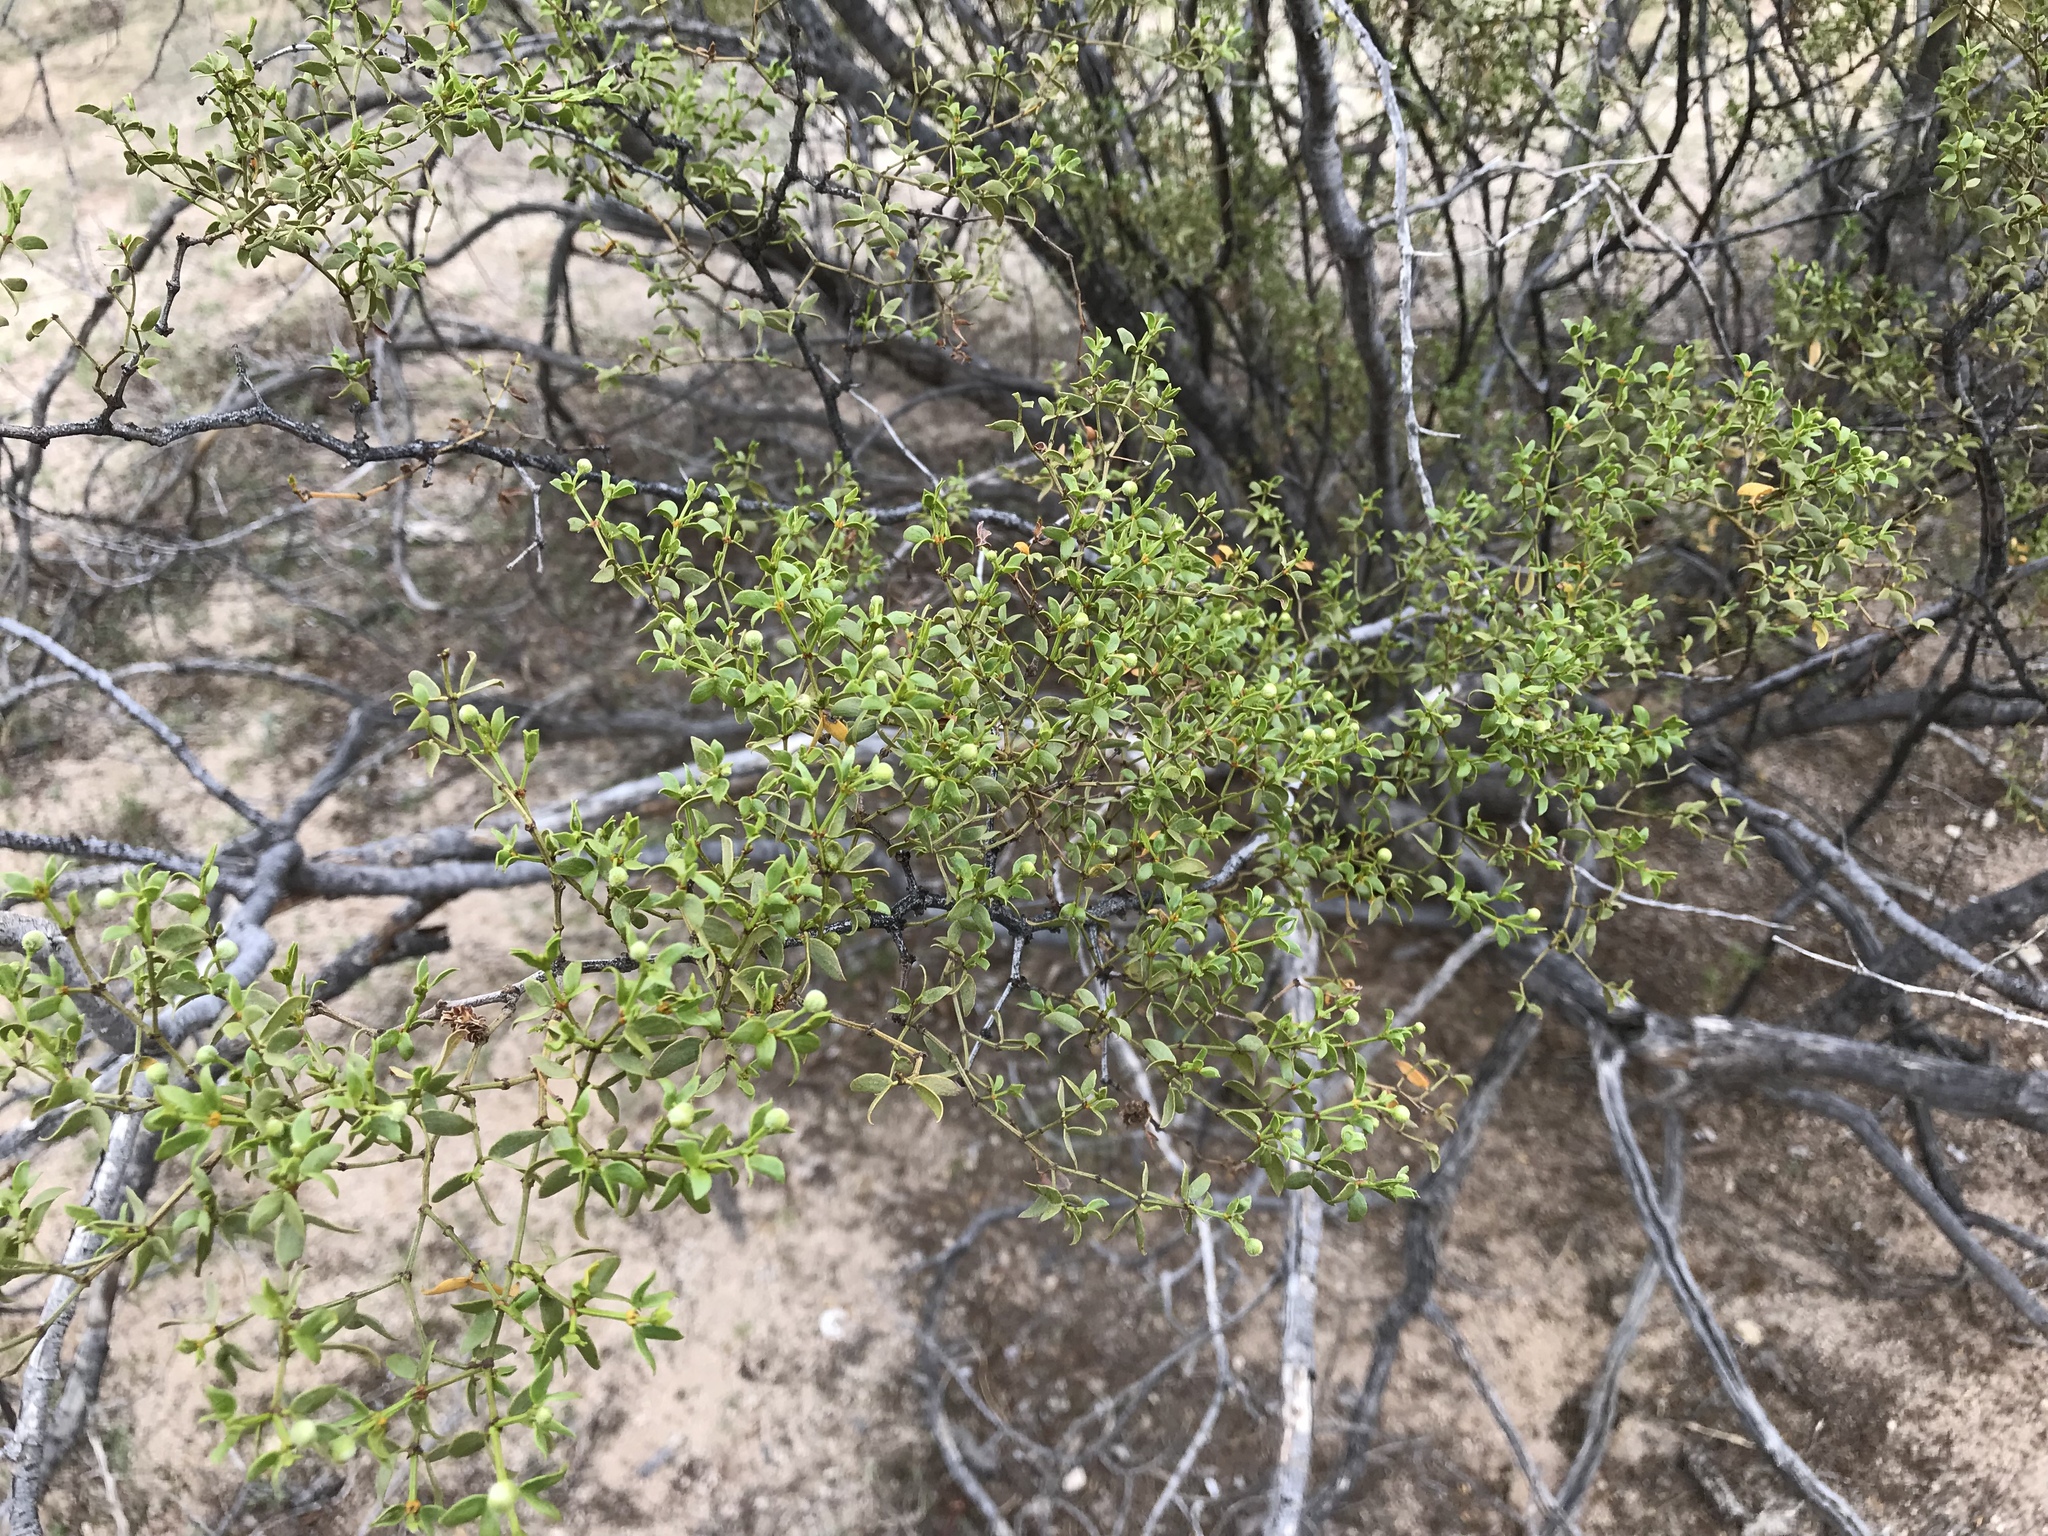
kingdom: Plantae
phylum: Tracheophyta
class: Magnoliopsida
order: Zygophyllales
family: Zygophyllaceae
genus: Larrea
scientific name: Larrea tridentata
